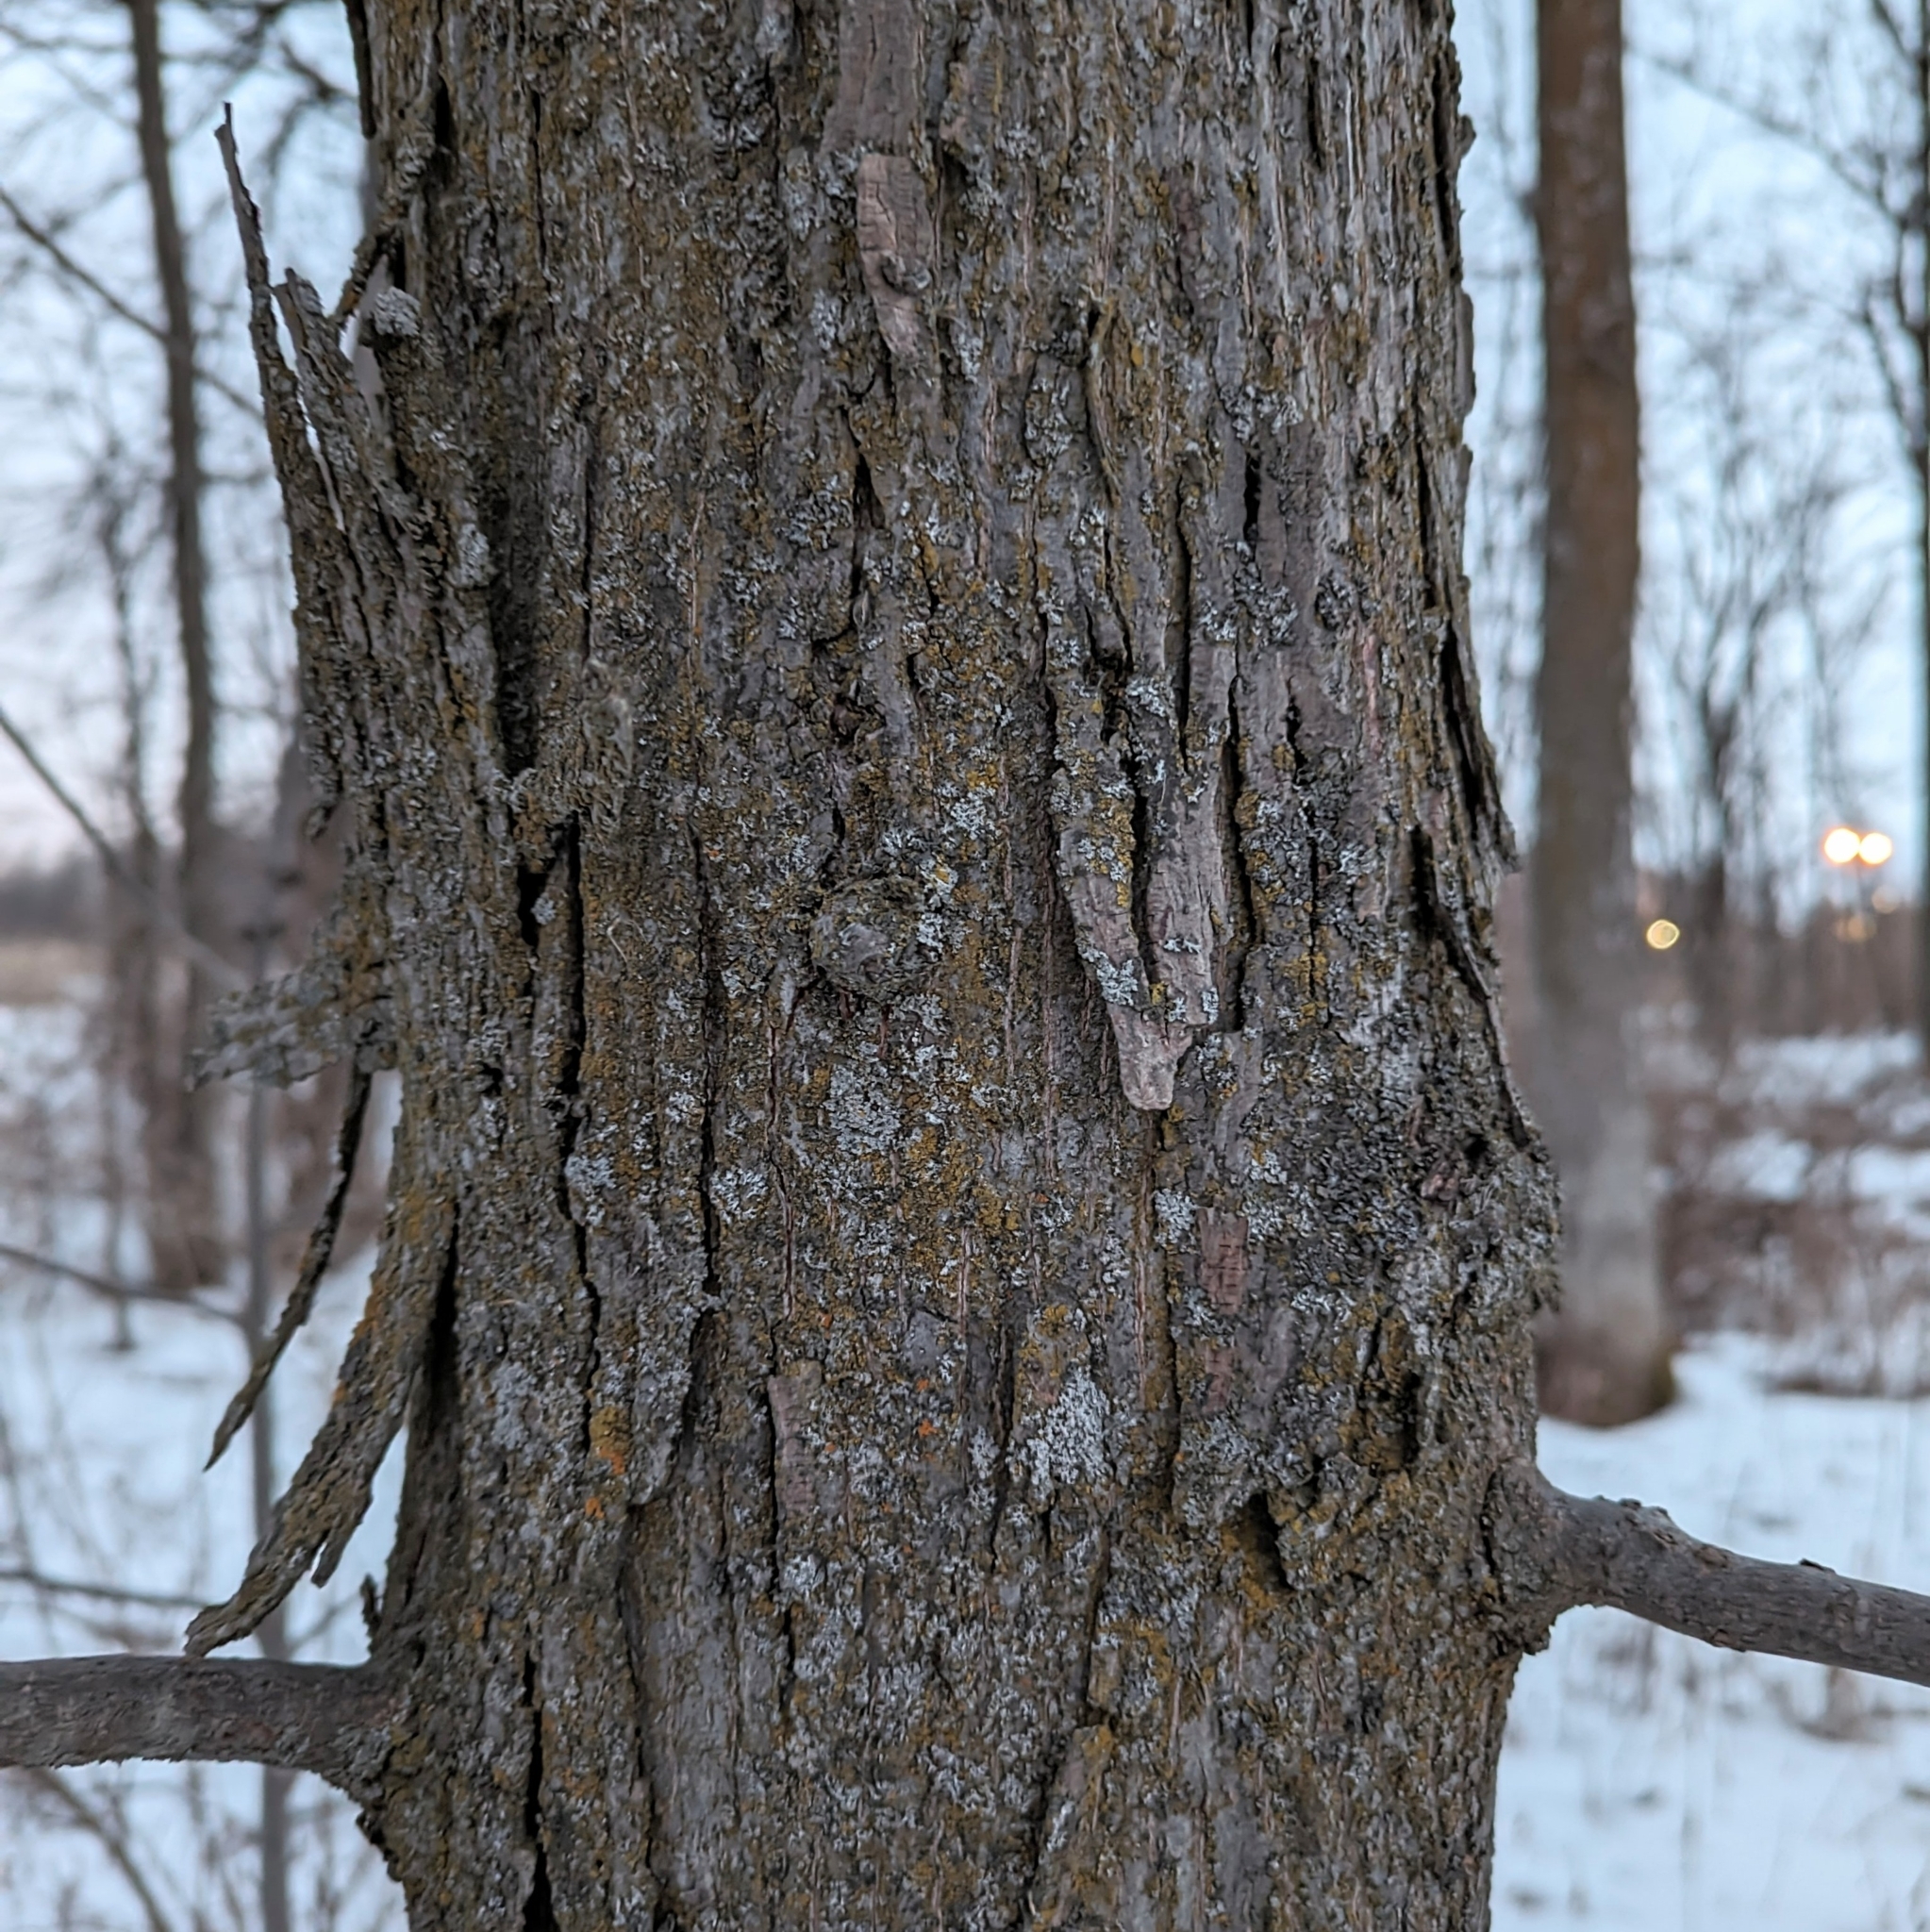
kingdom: Plantae
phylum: Tracheophyta
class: Magnoliopsida
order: Fagales
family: Juglandaceae
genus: Carya
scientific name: Carya ovata
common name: Shagbark hickory
